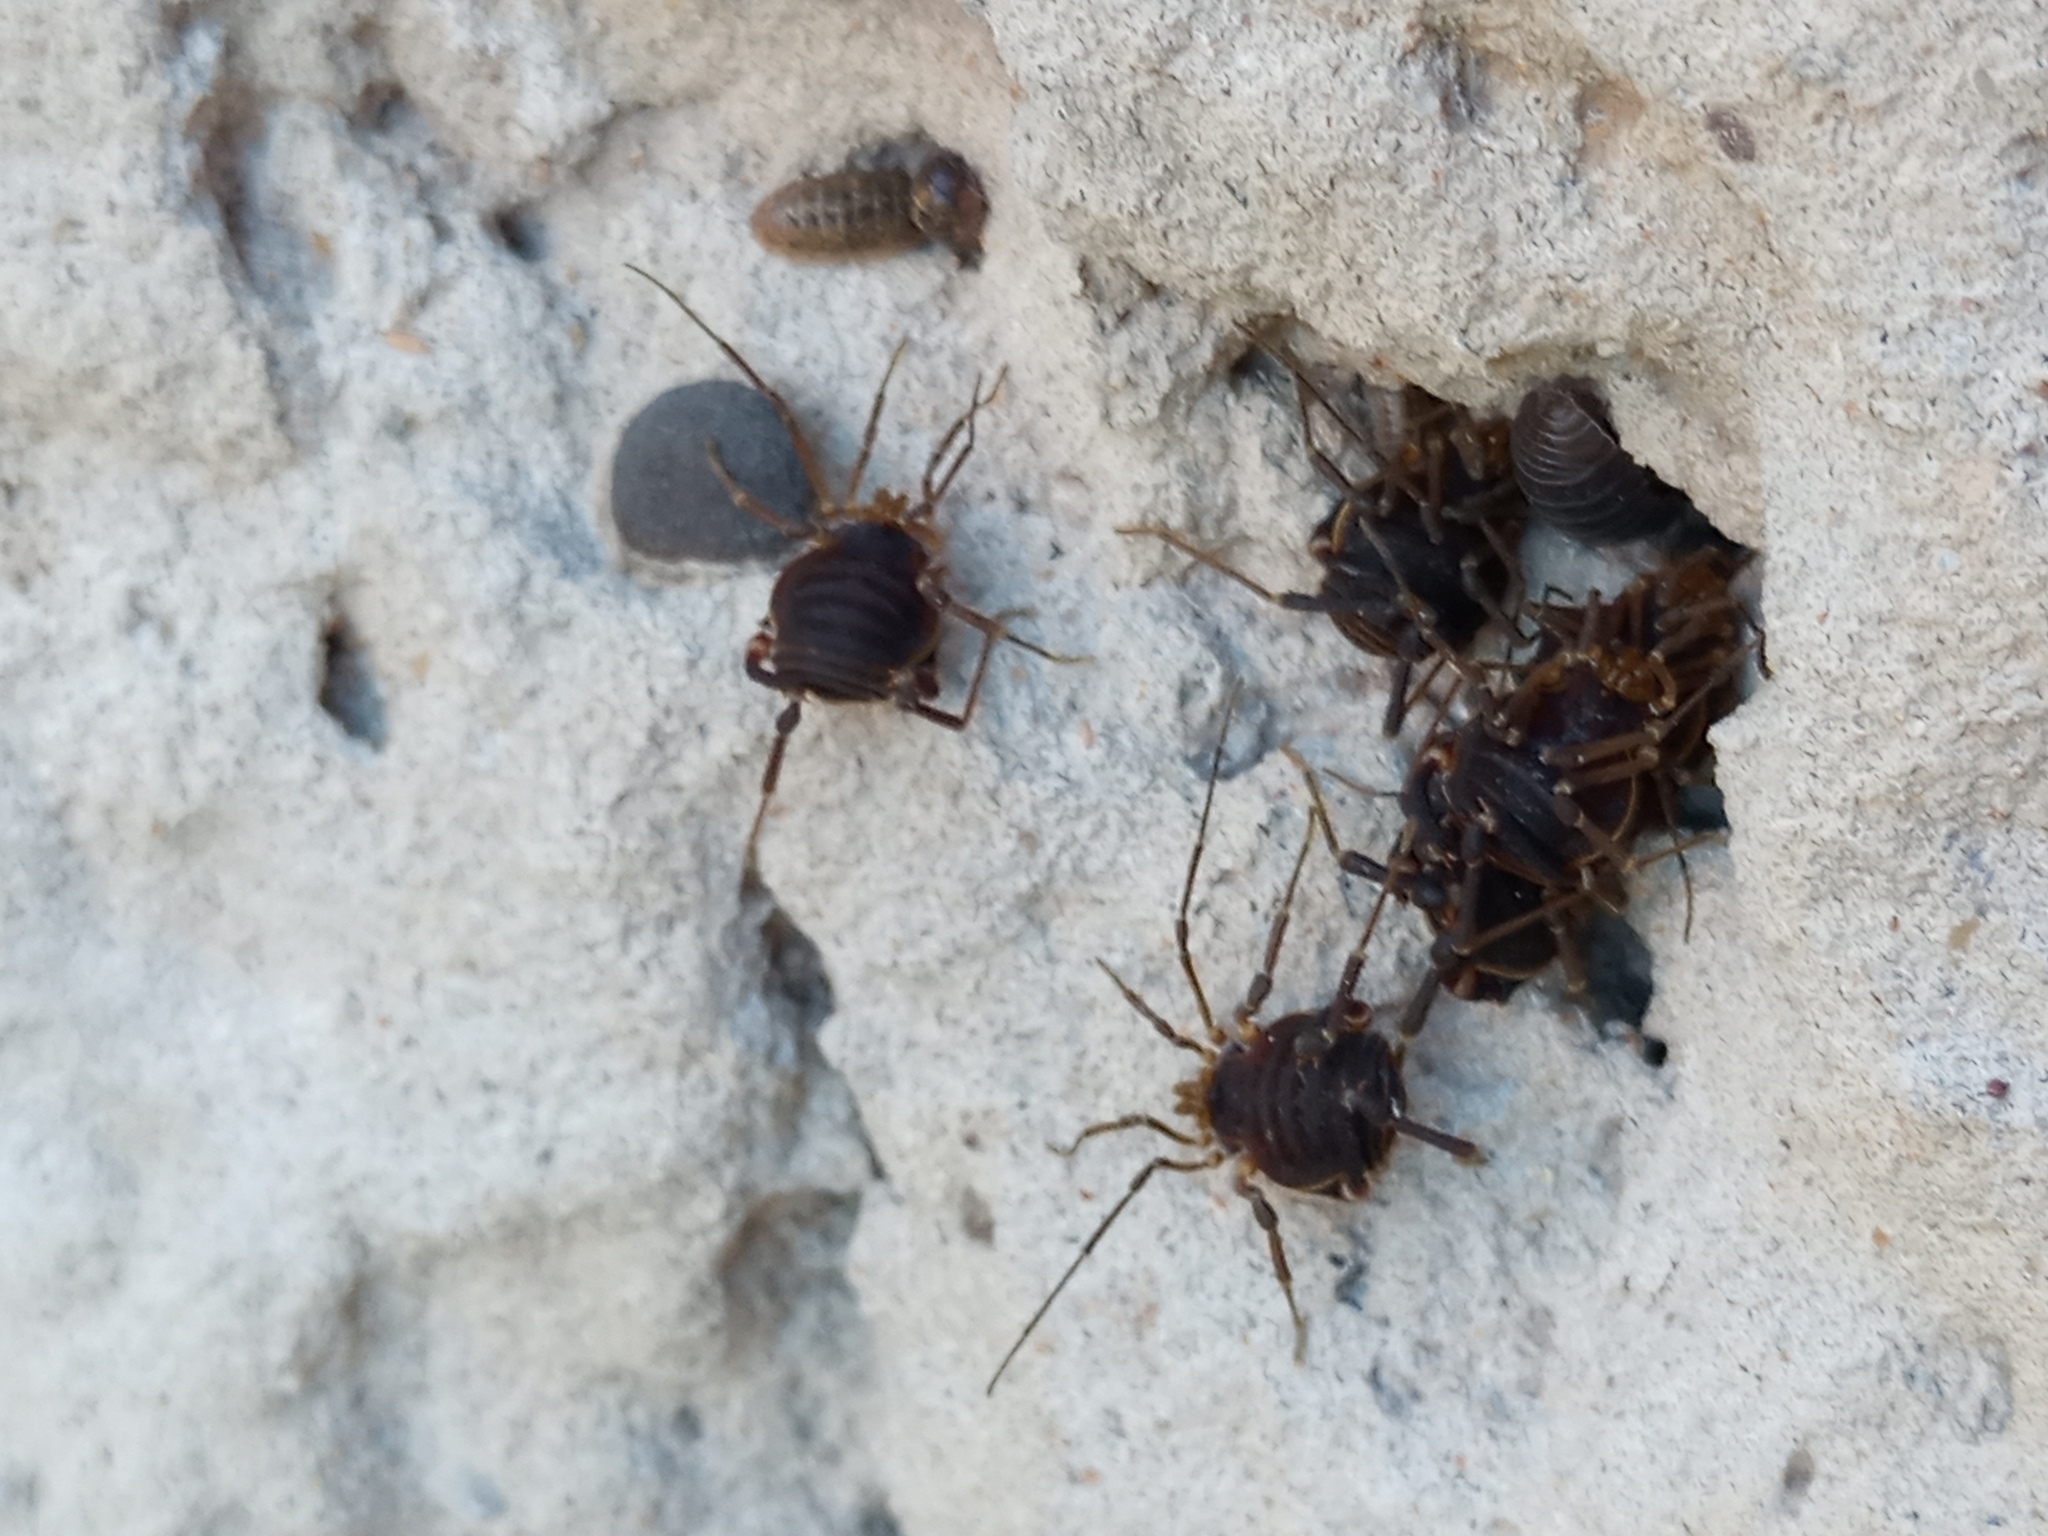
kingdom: Animalia
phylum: Arthropoda
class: Arachnida
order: Opiliones
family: Gonyleptidae
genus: Acanthopachylus
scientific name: Acanthopachylus robustus
